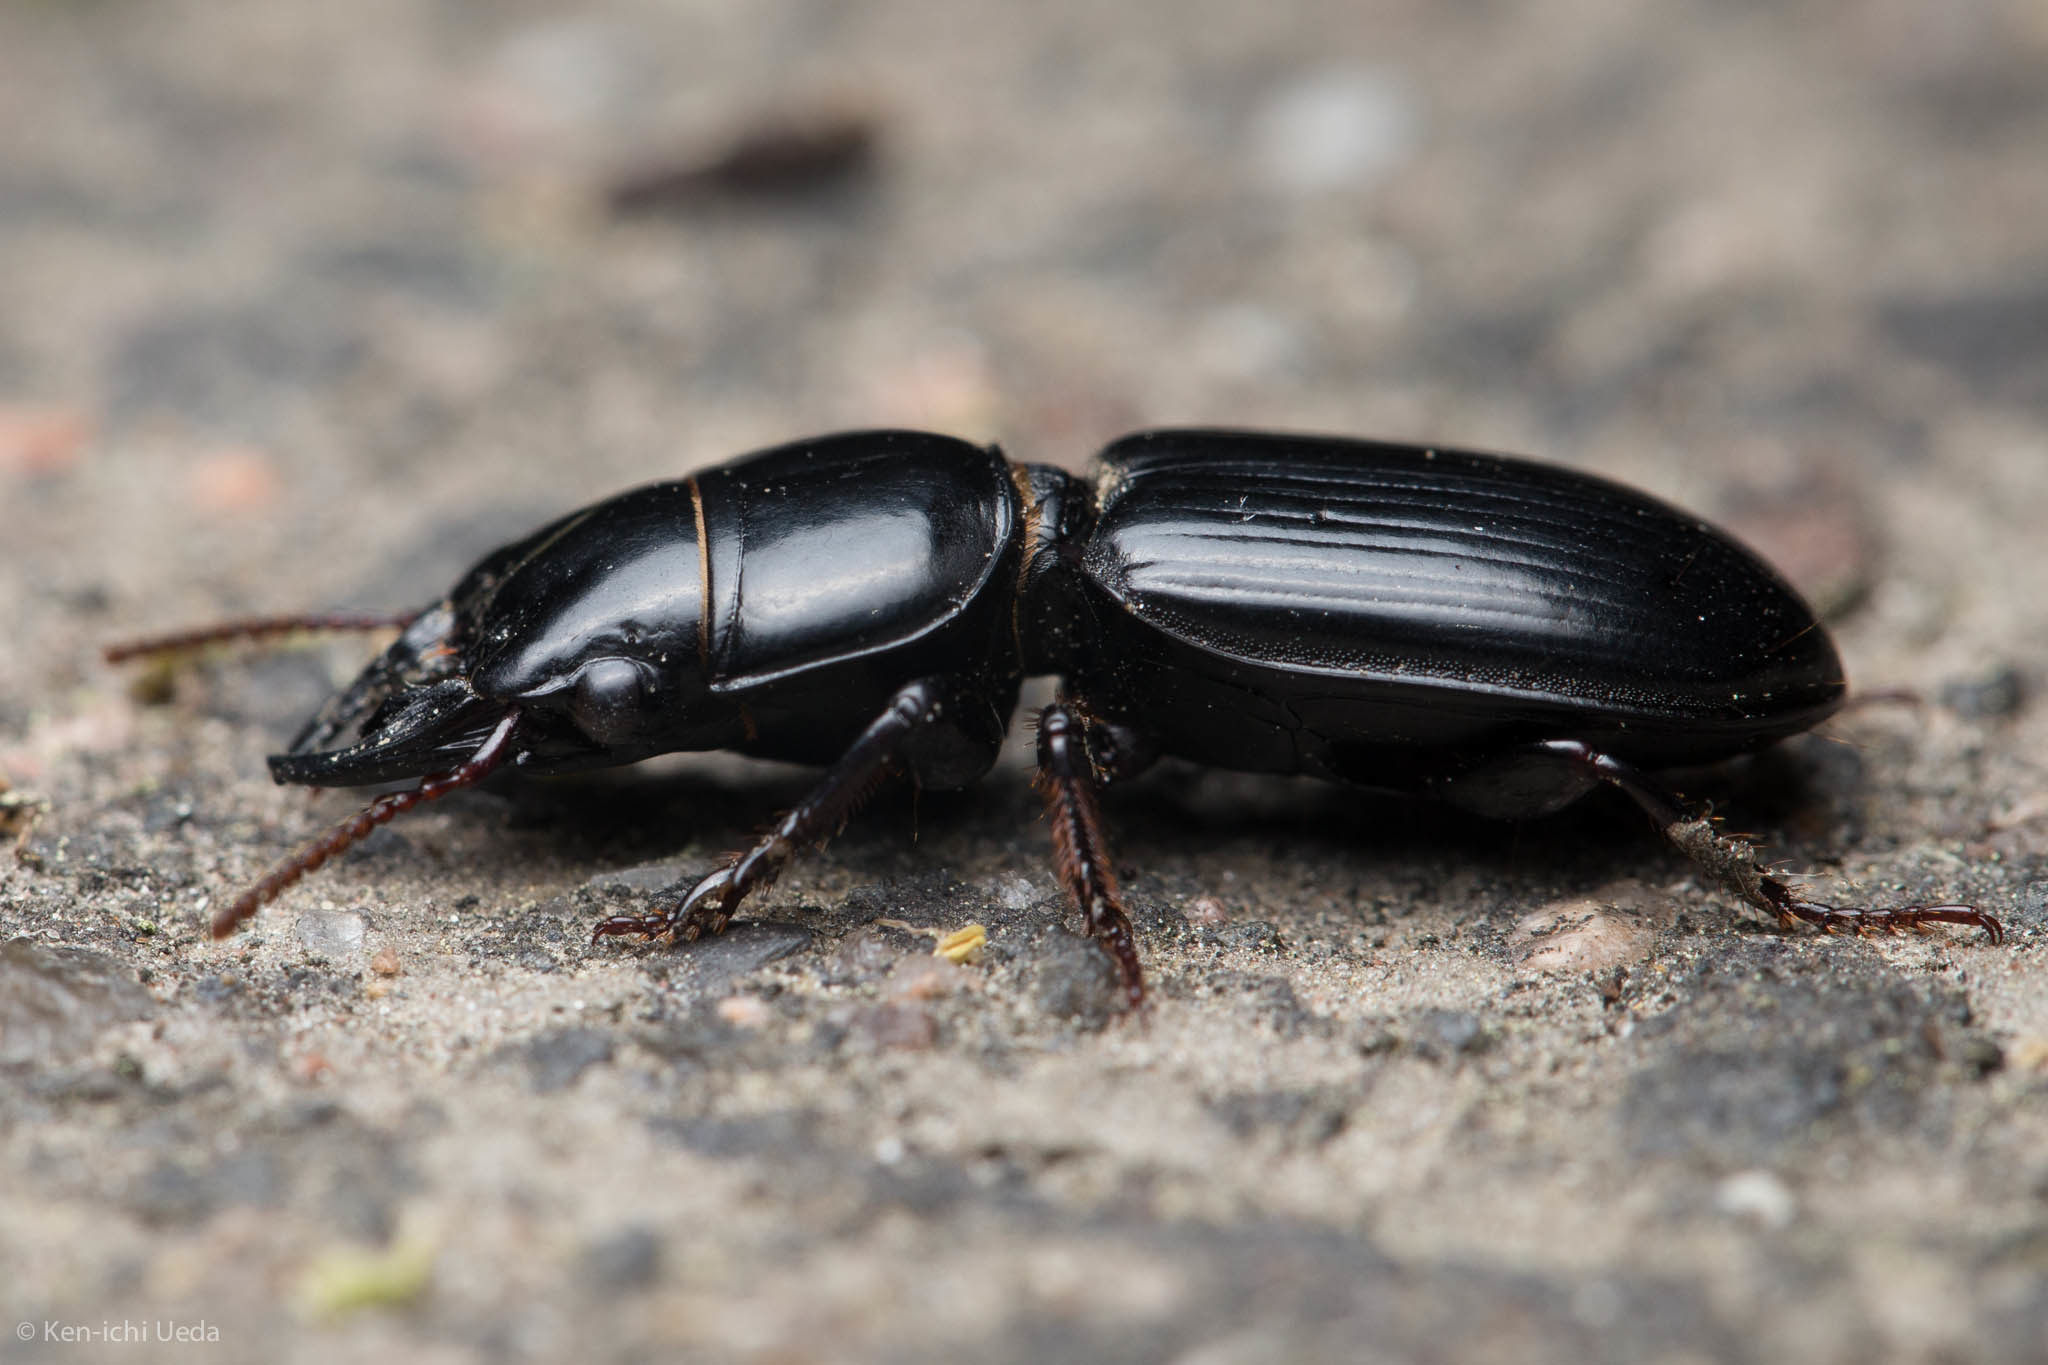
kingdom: Animalia
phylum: Arthropoda
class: Insecta
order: Coleoptera
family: Carabidae
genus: Scarites
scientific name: Scarites quadriceps
